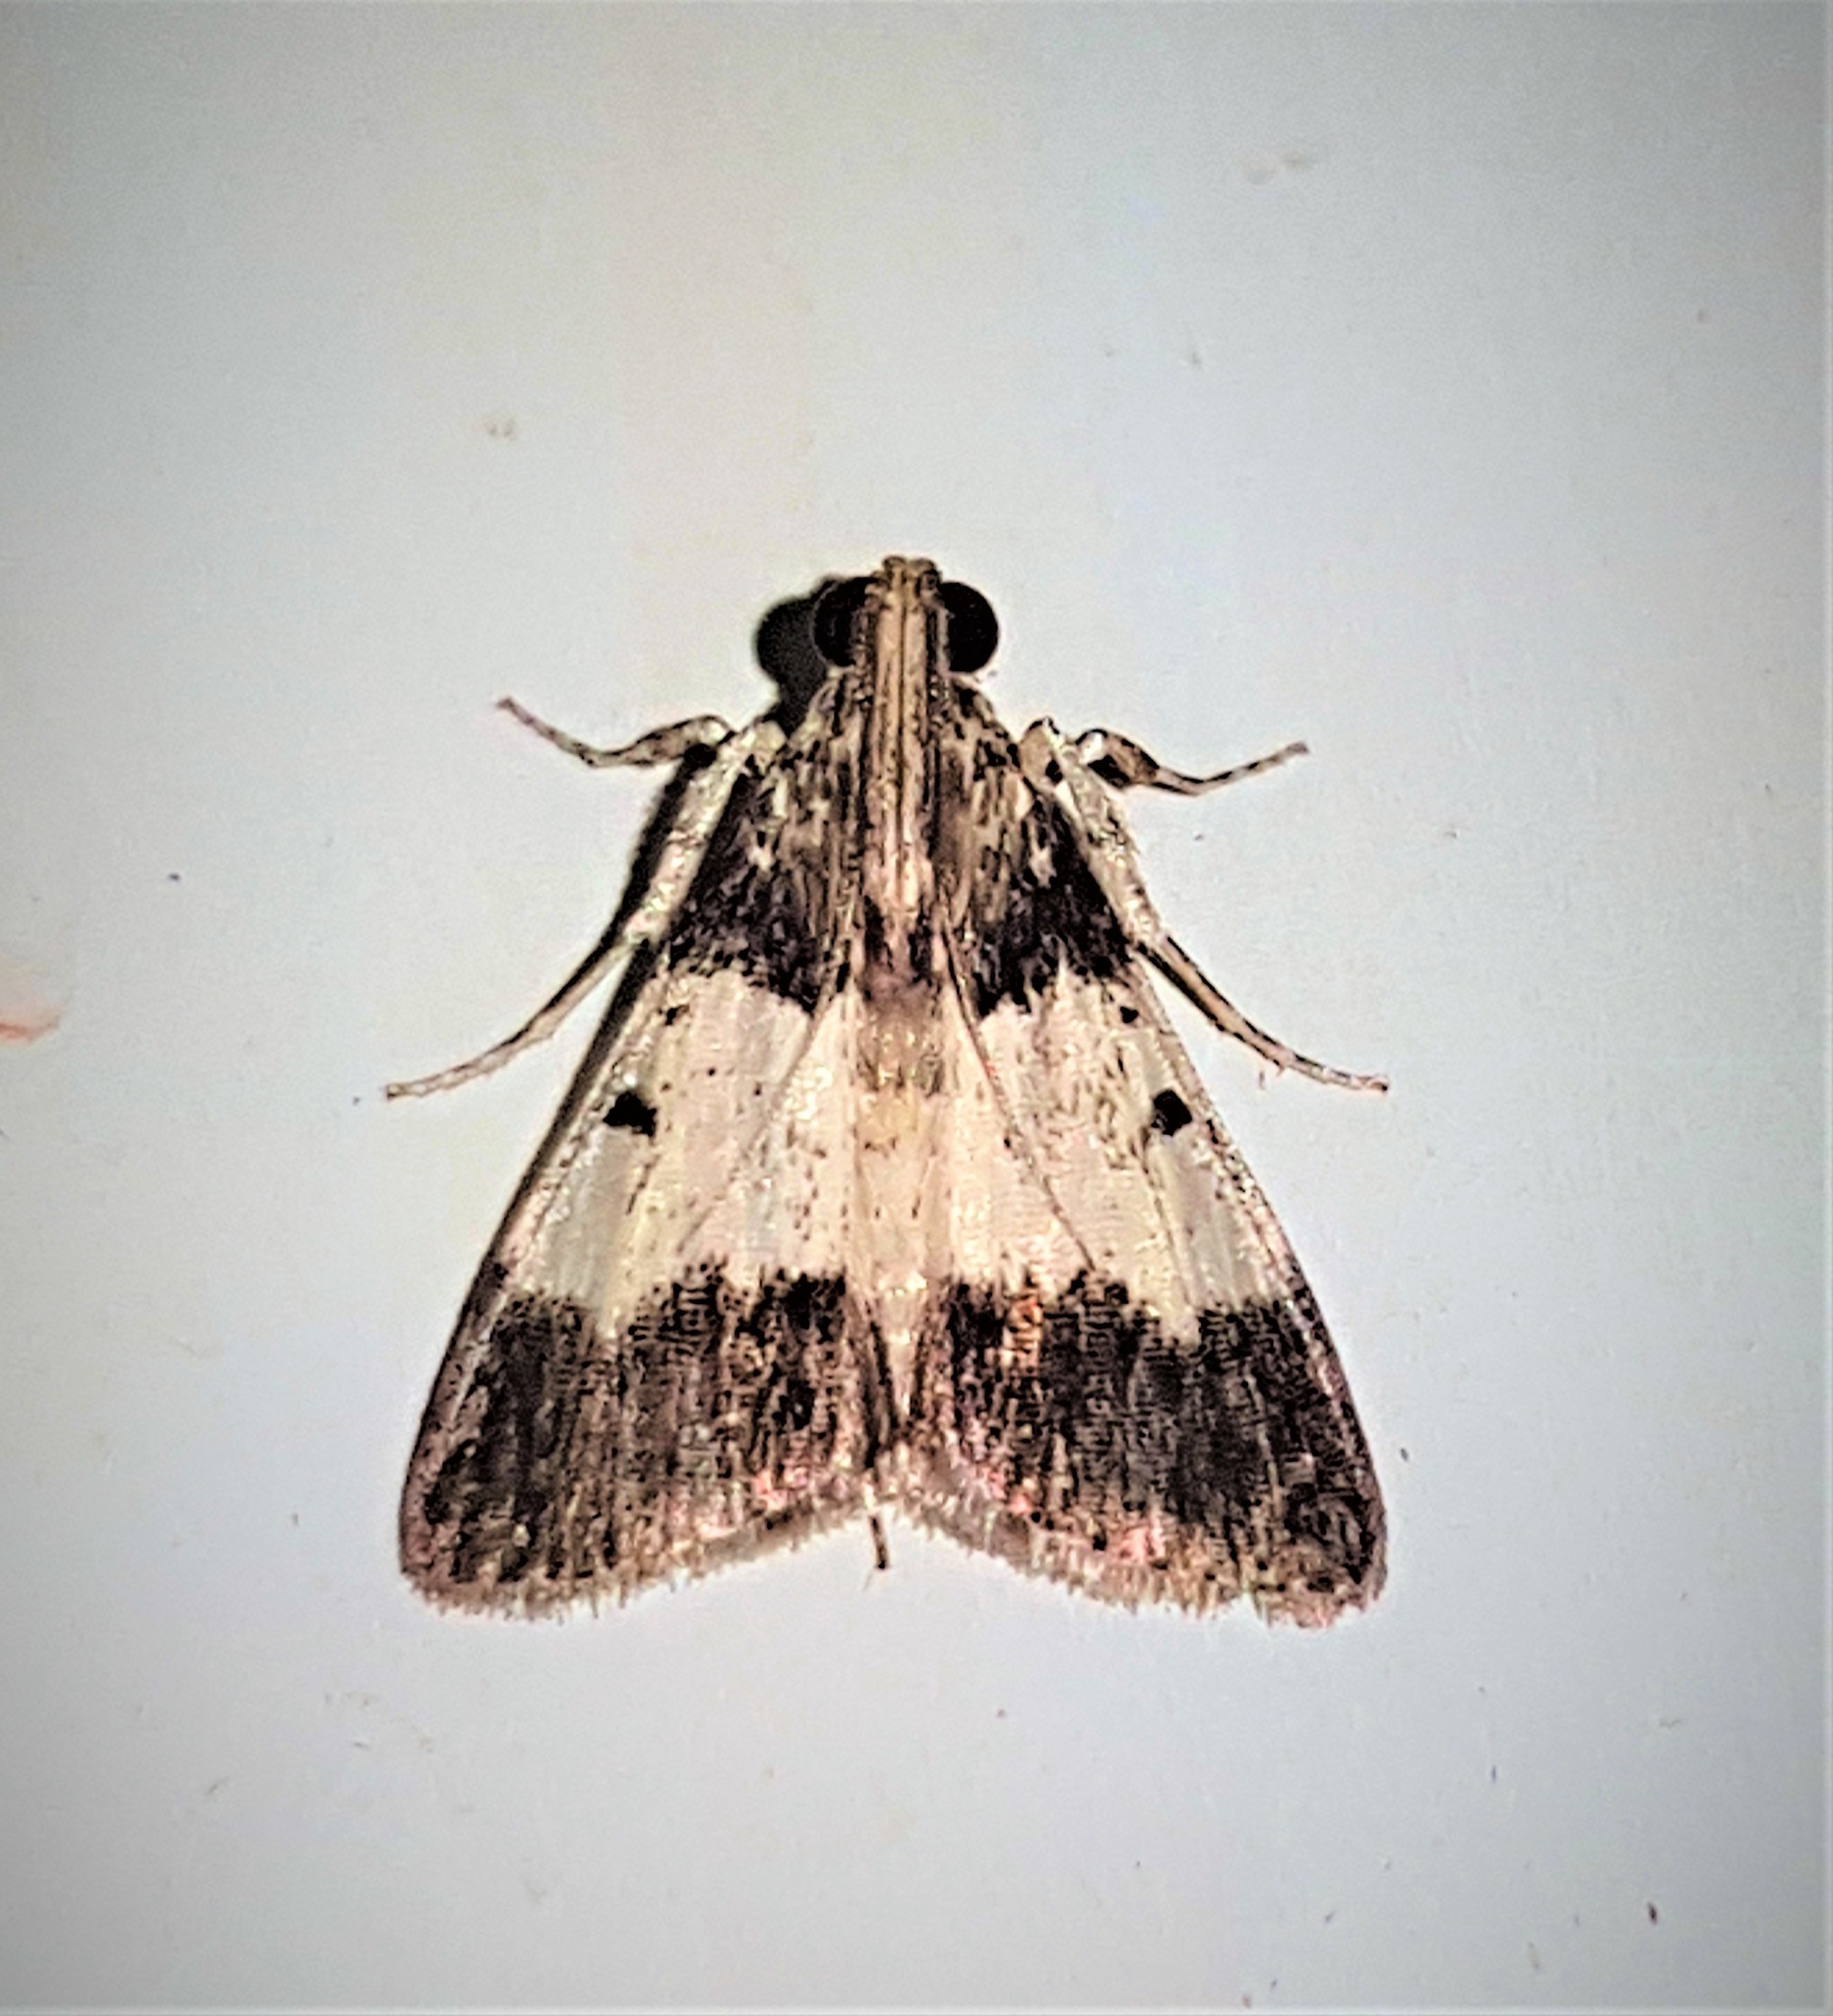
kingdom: Animalia
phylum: Arthropoda
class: Insecta
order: Lepidoptera
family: Pyralidae
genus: Macalla
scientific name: Macalla niveorufa
